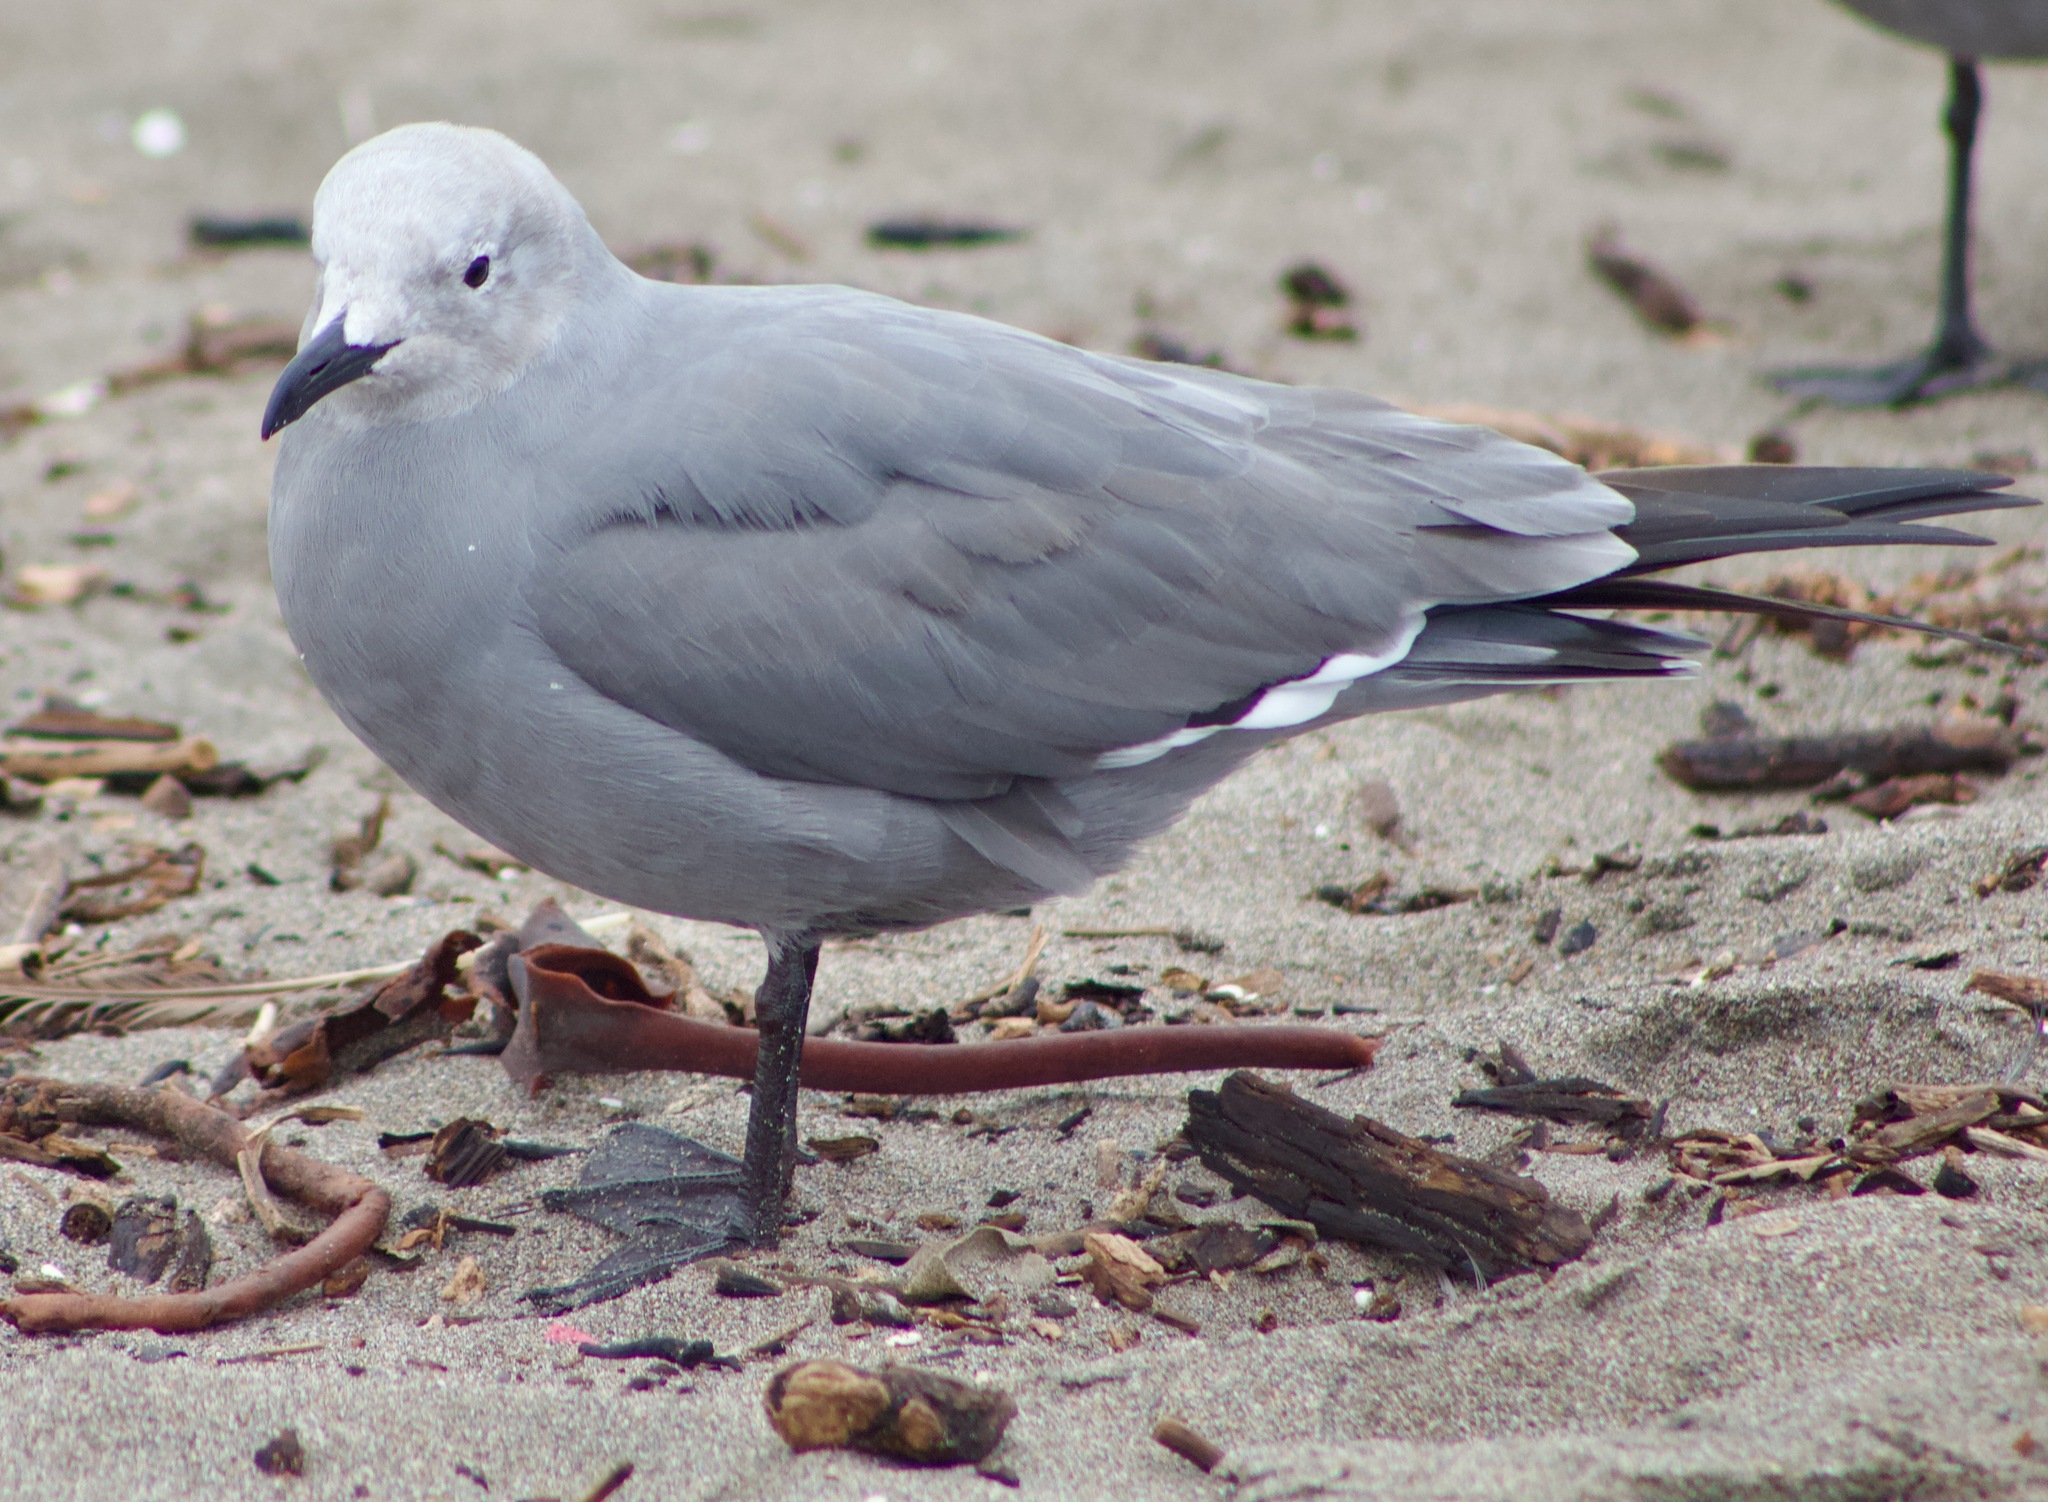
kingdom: Animalia
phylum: Chordata
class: Aves
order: Charadriiformes
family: Laridae
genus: Leucophaeus
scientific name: Leucophaeus modestus
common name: Gray gull
